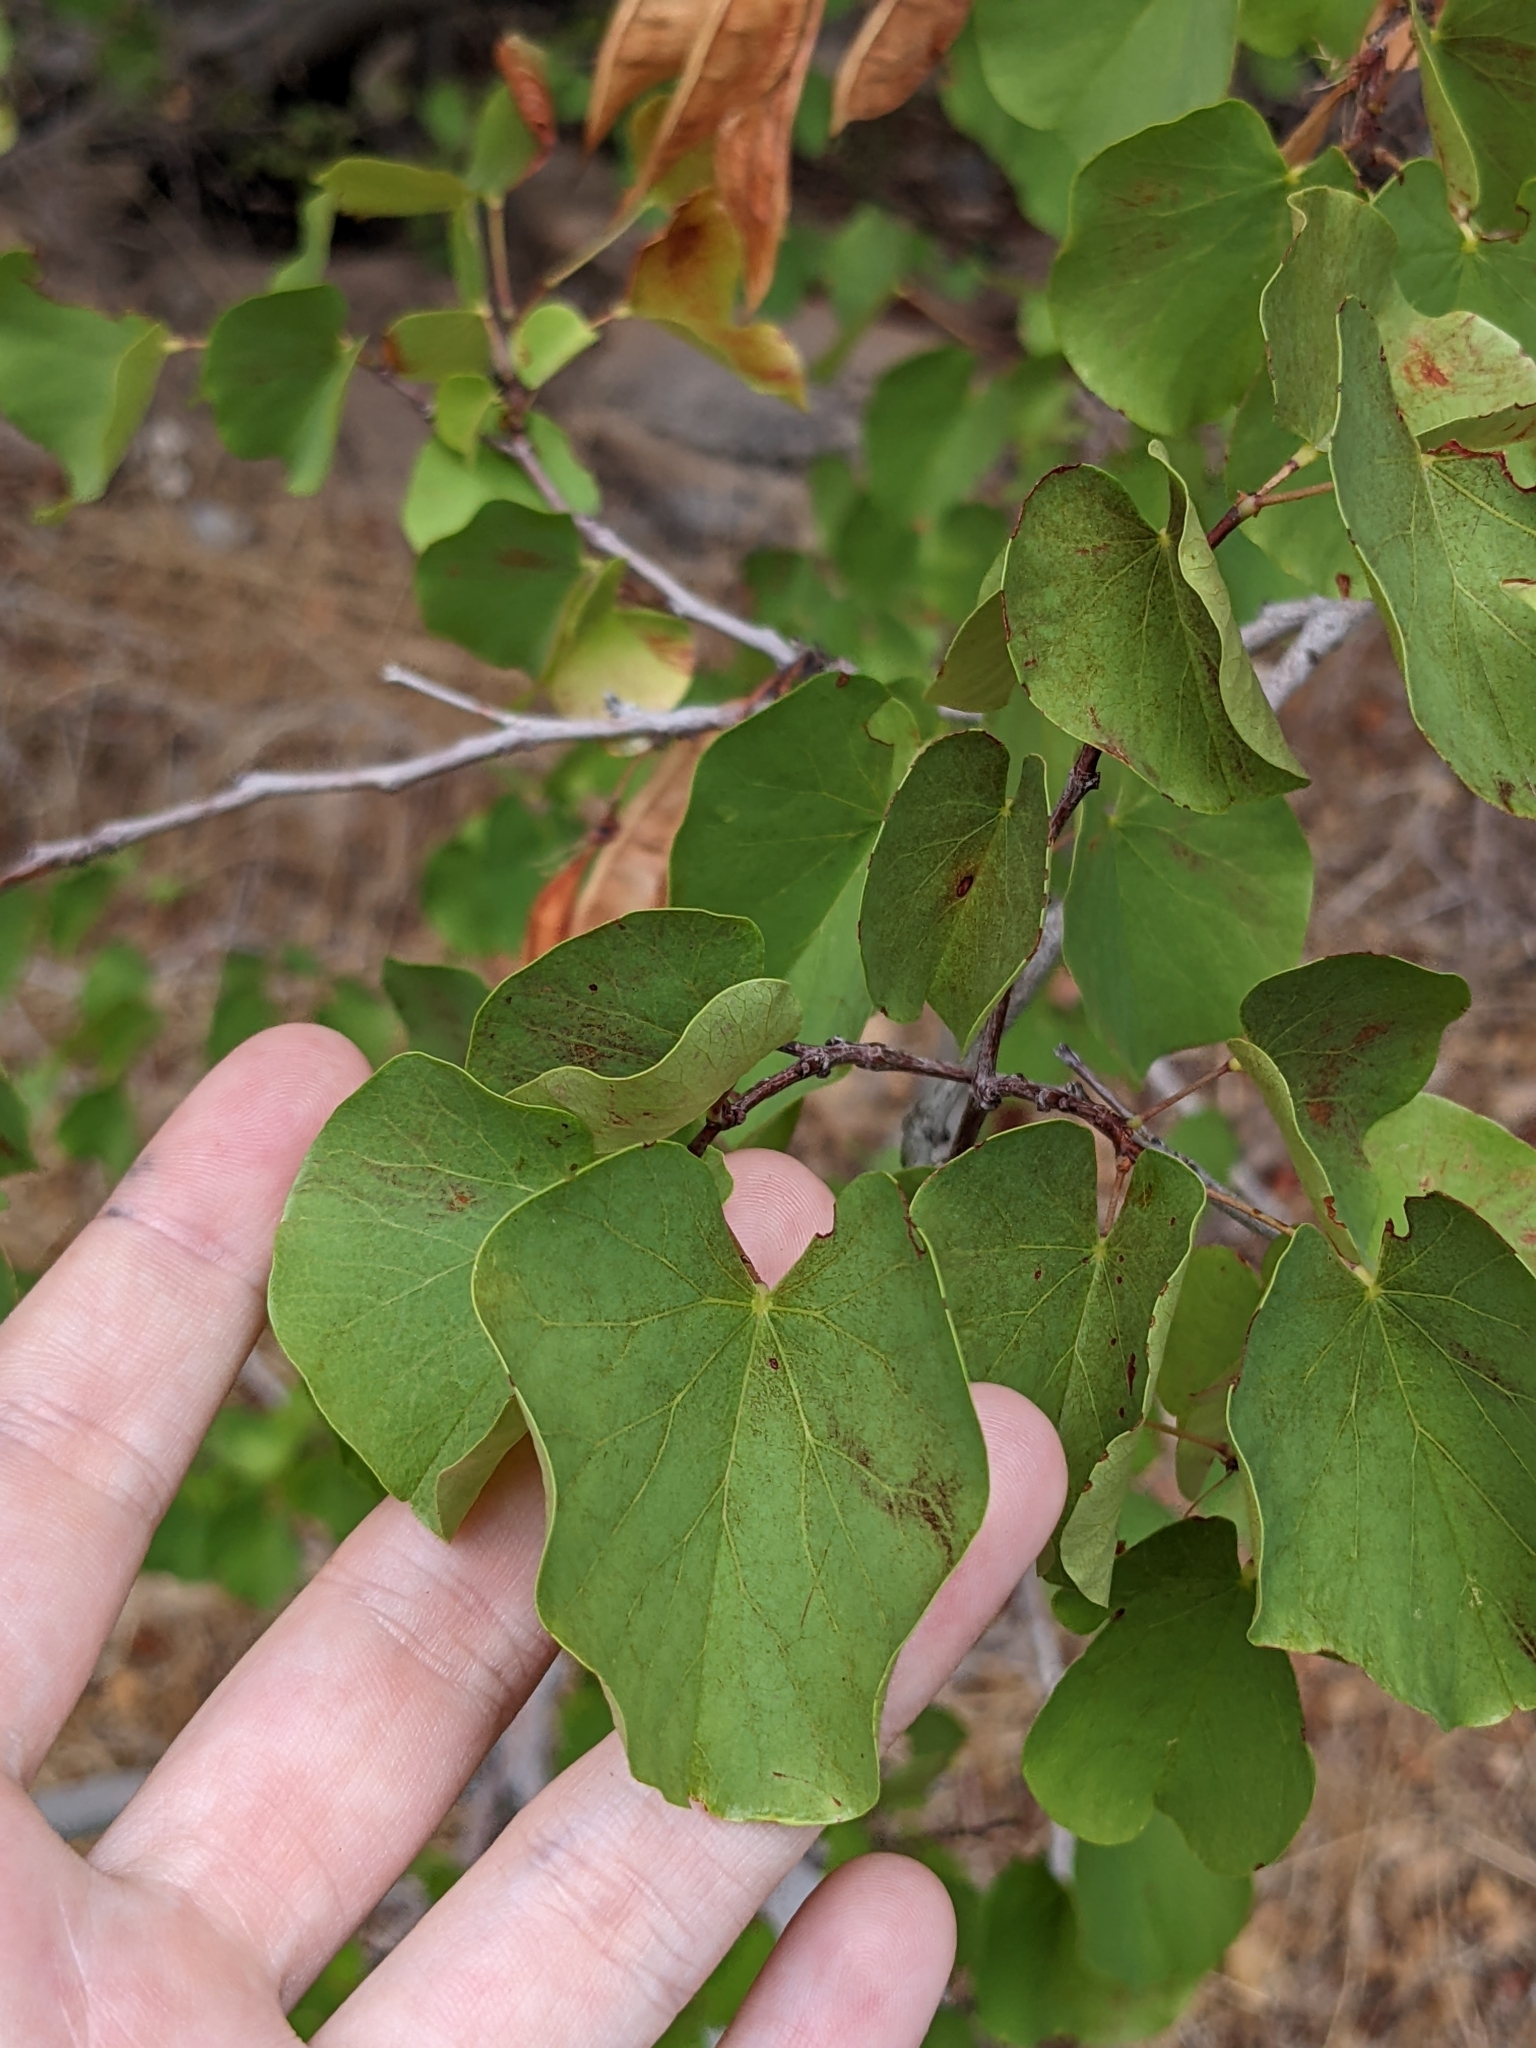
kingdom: Plantae
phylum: Tracheophyta
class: Magnoliopsida
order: Fabales
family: Fabaceae
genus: Cercis
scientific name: Cercis occidentalis
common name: California redbud
